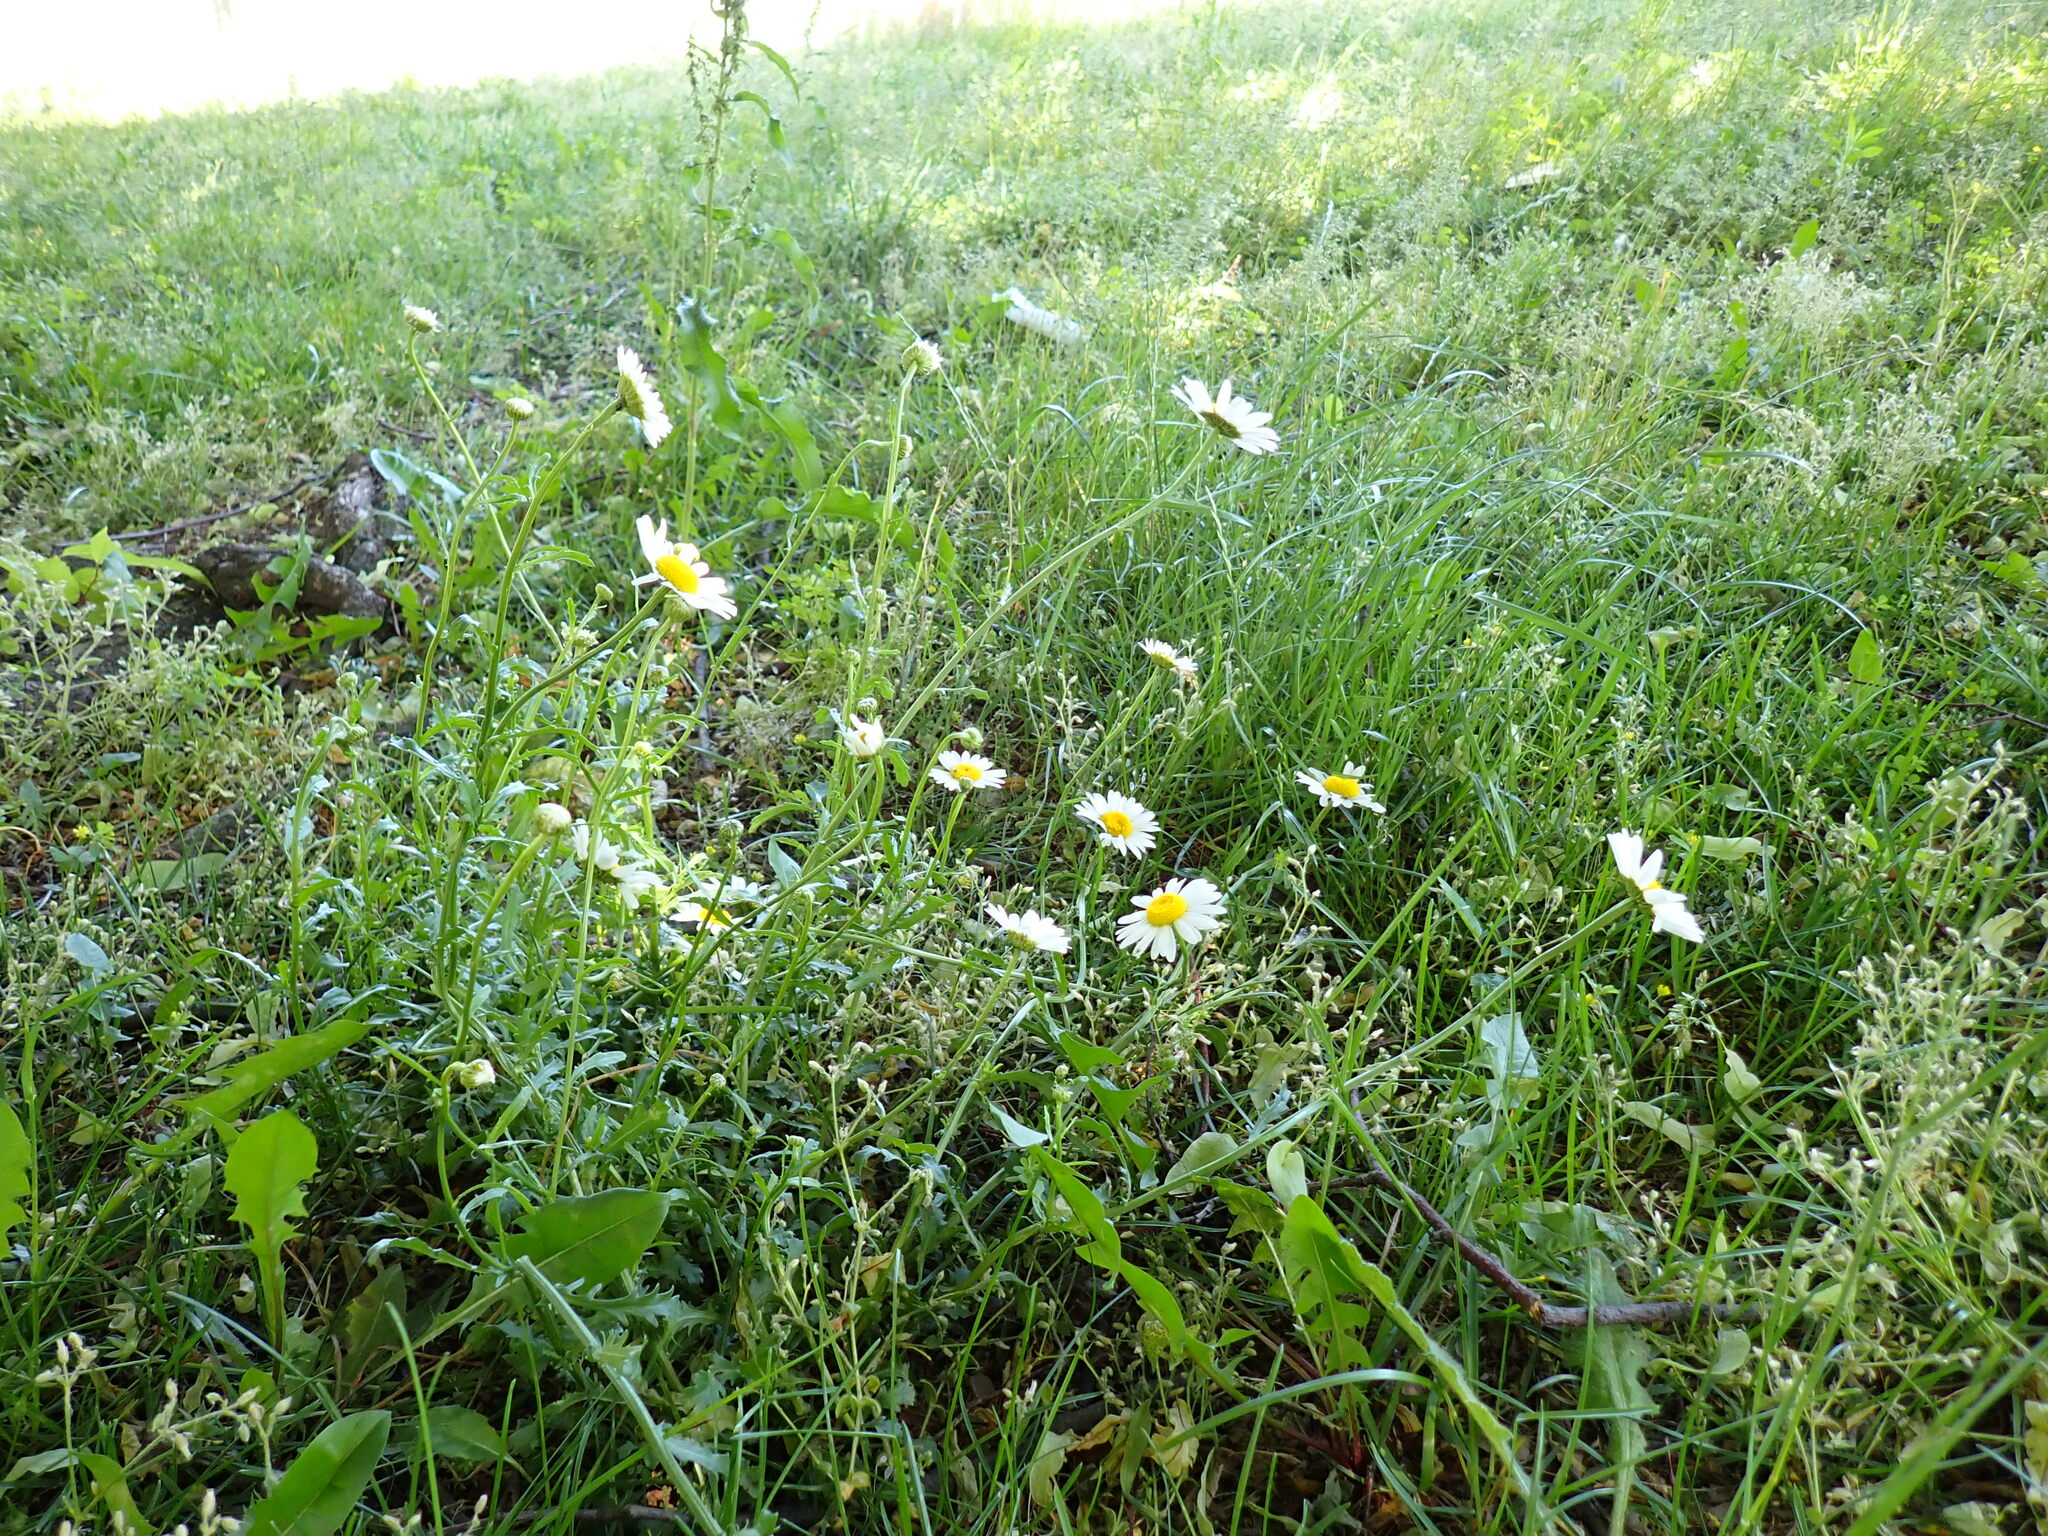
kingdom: Plantae
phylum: Tracheophyta
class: Magnoliopsida
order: Asterales
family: Asteraceae
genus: Leucanthemum
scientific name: Leucanthemum vulgare
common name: Oxeye daisy
